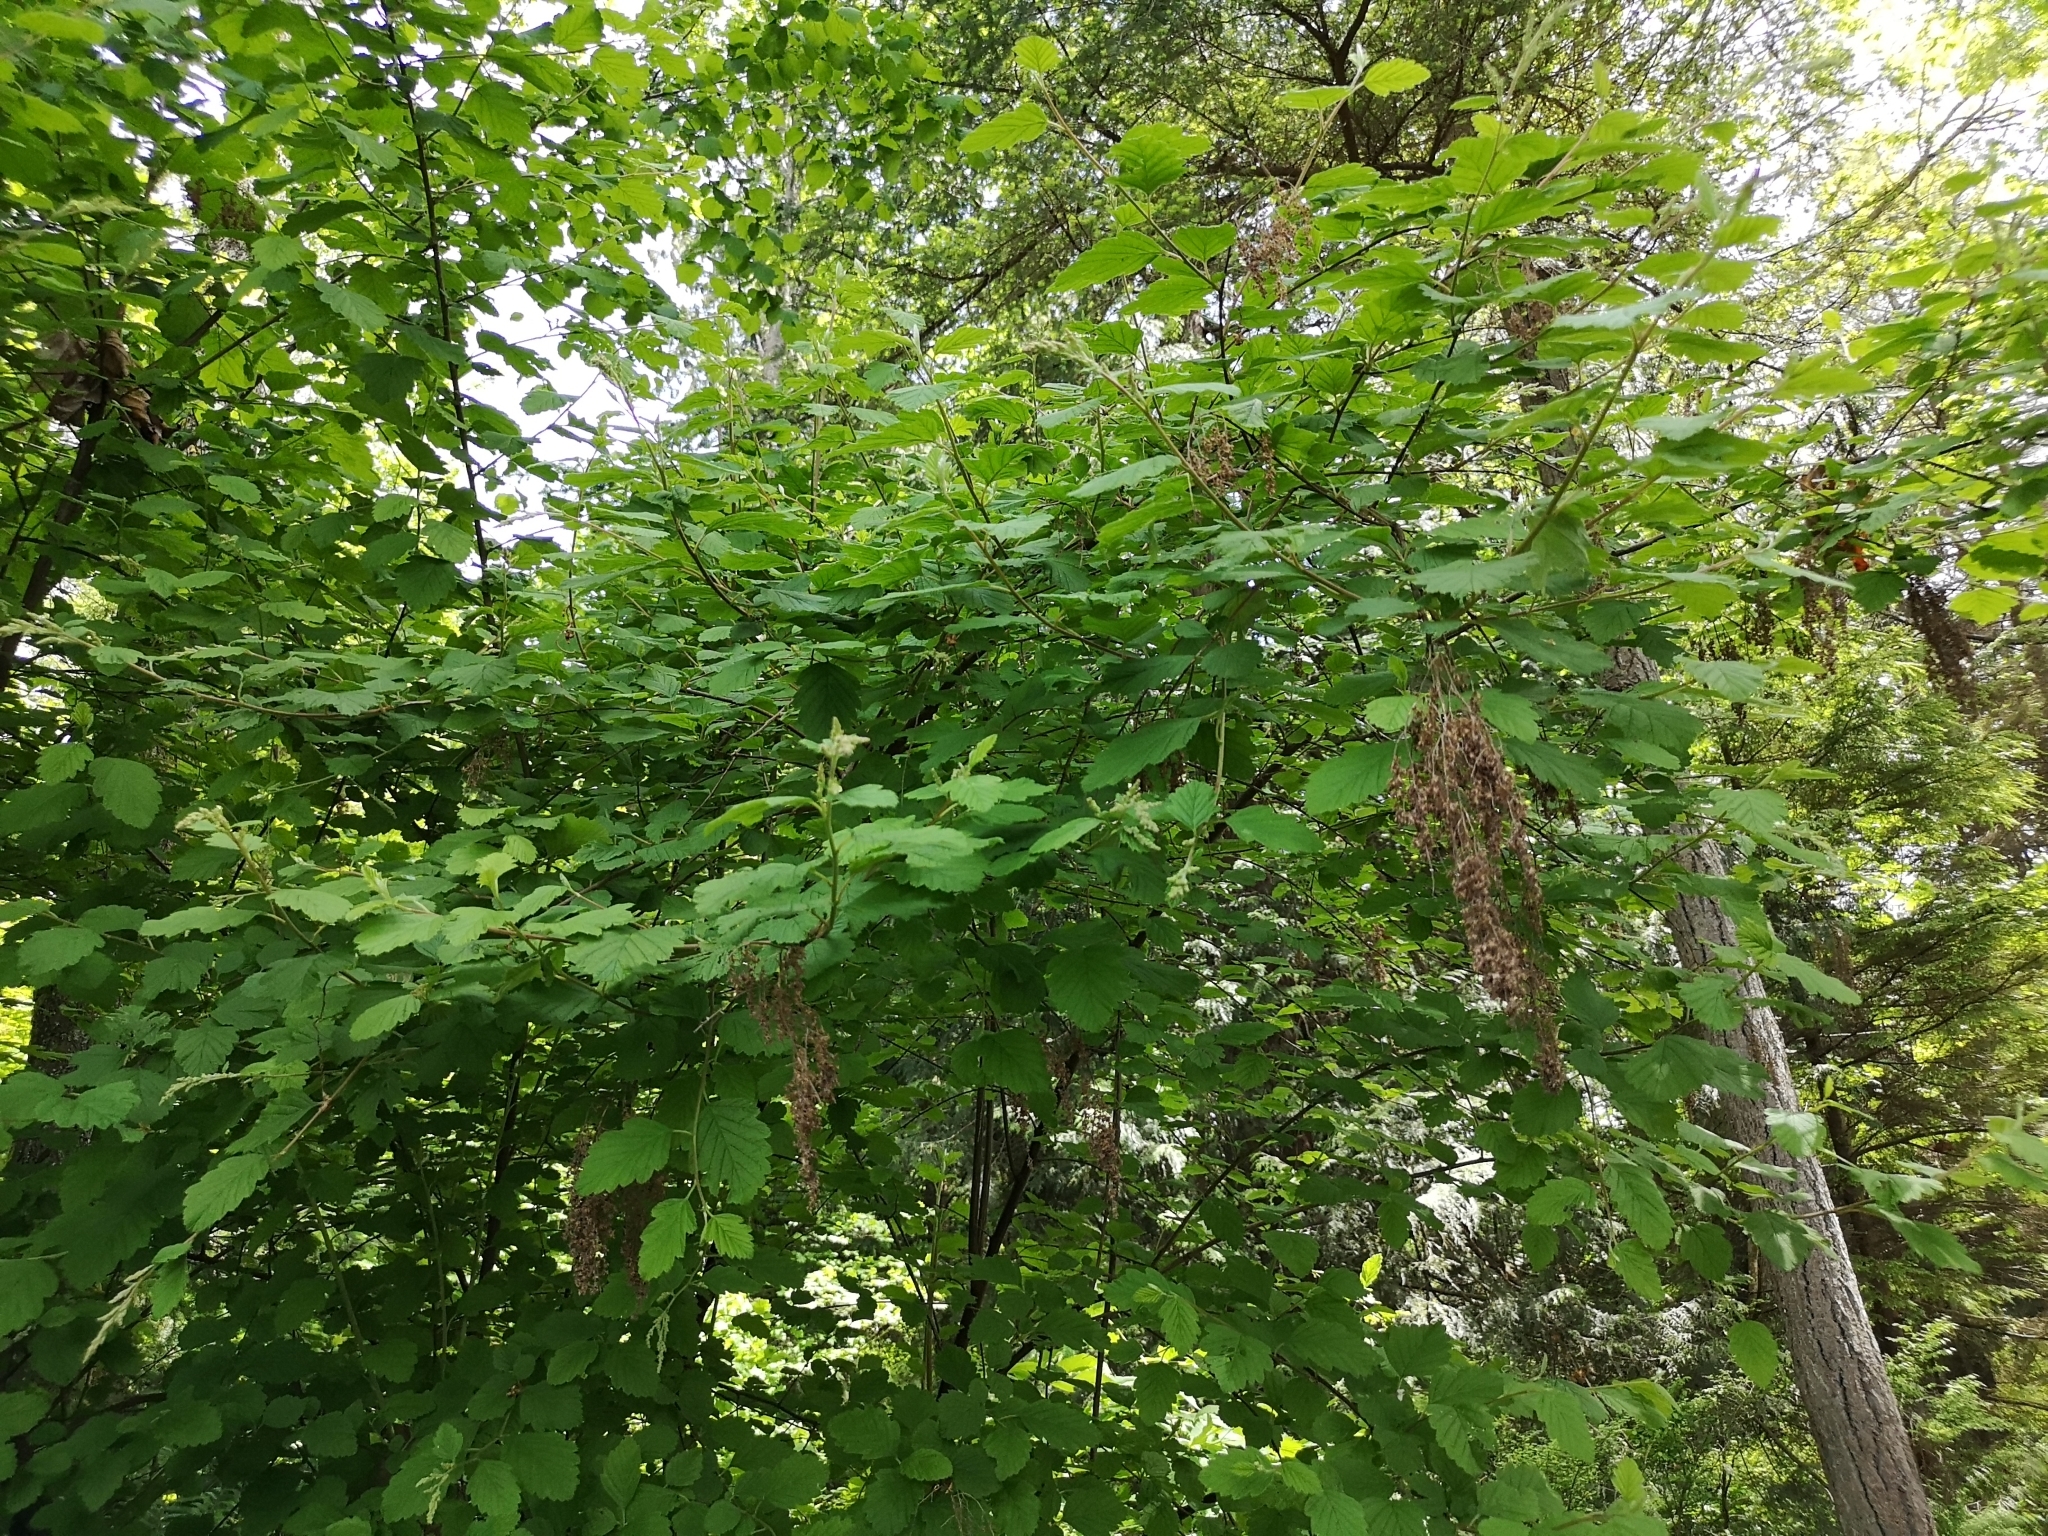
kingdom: Plantae
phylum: Tracheophyta
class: Magnoliopsida
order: Rosales
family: Rosaceae
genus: Holodiscus
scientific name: Holodiscus discolor
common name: Oceanspray
